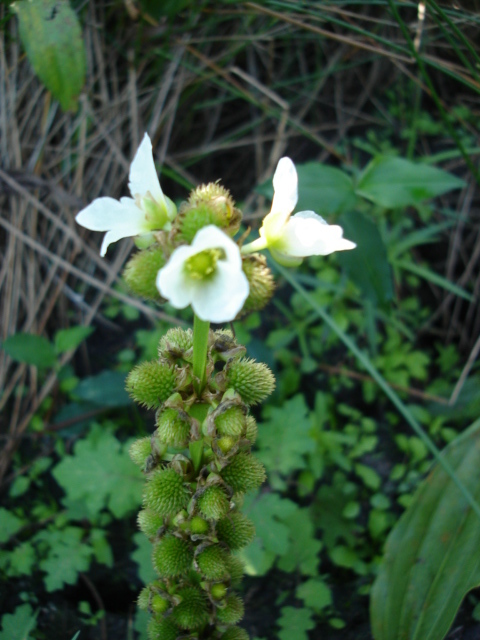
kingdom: Plantae
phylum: Tracheophyta
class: Liliopsida
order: Alismatales
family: Alismataceae
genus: Aquarius
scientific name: Aquarius subulatus
